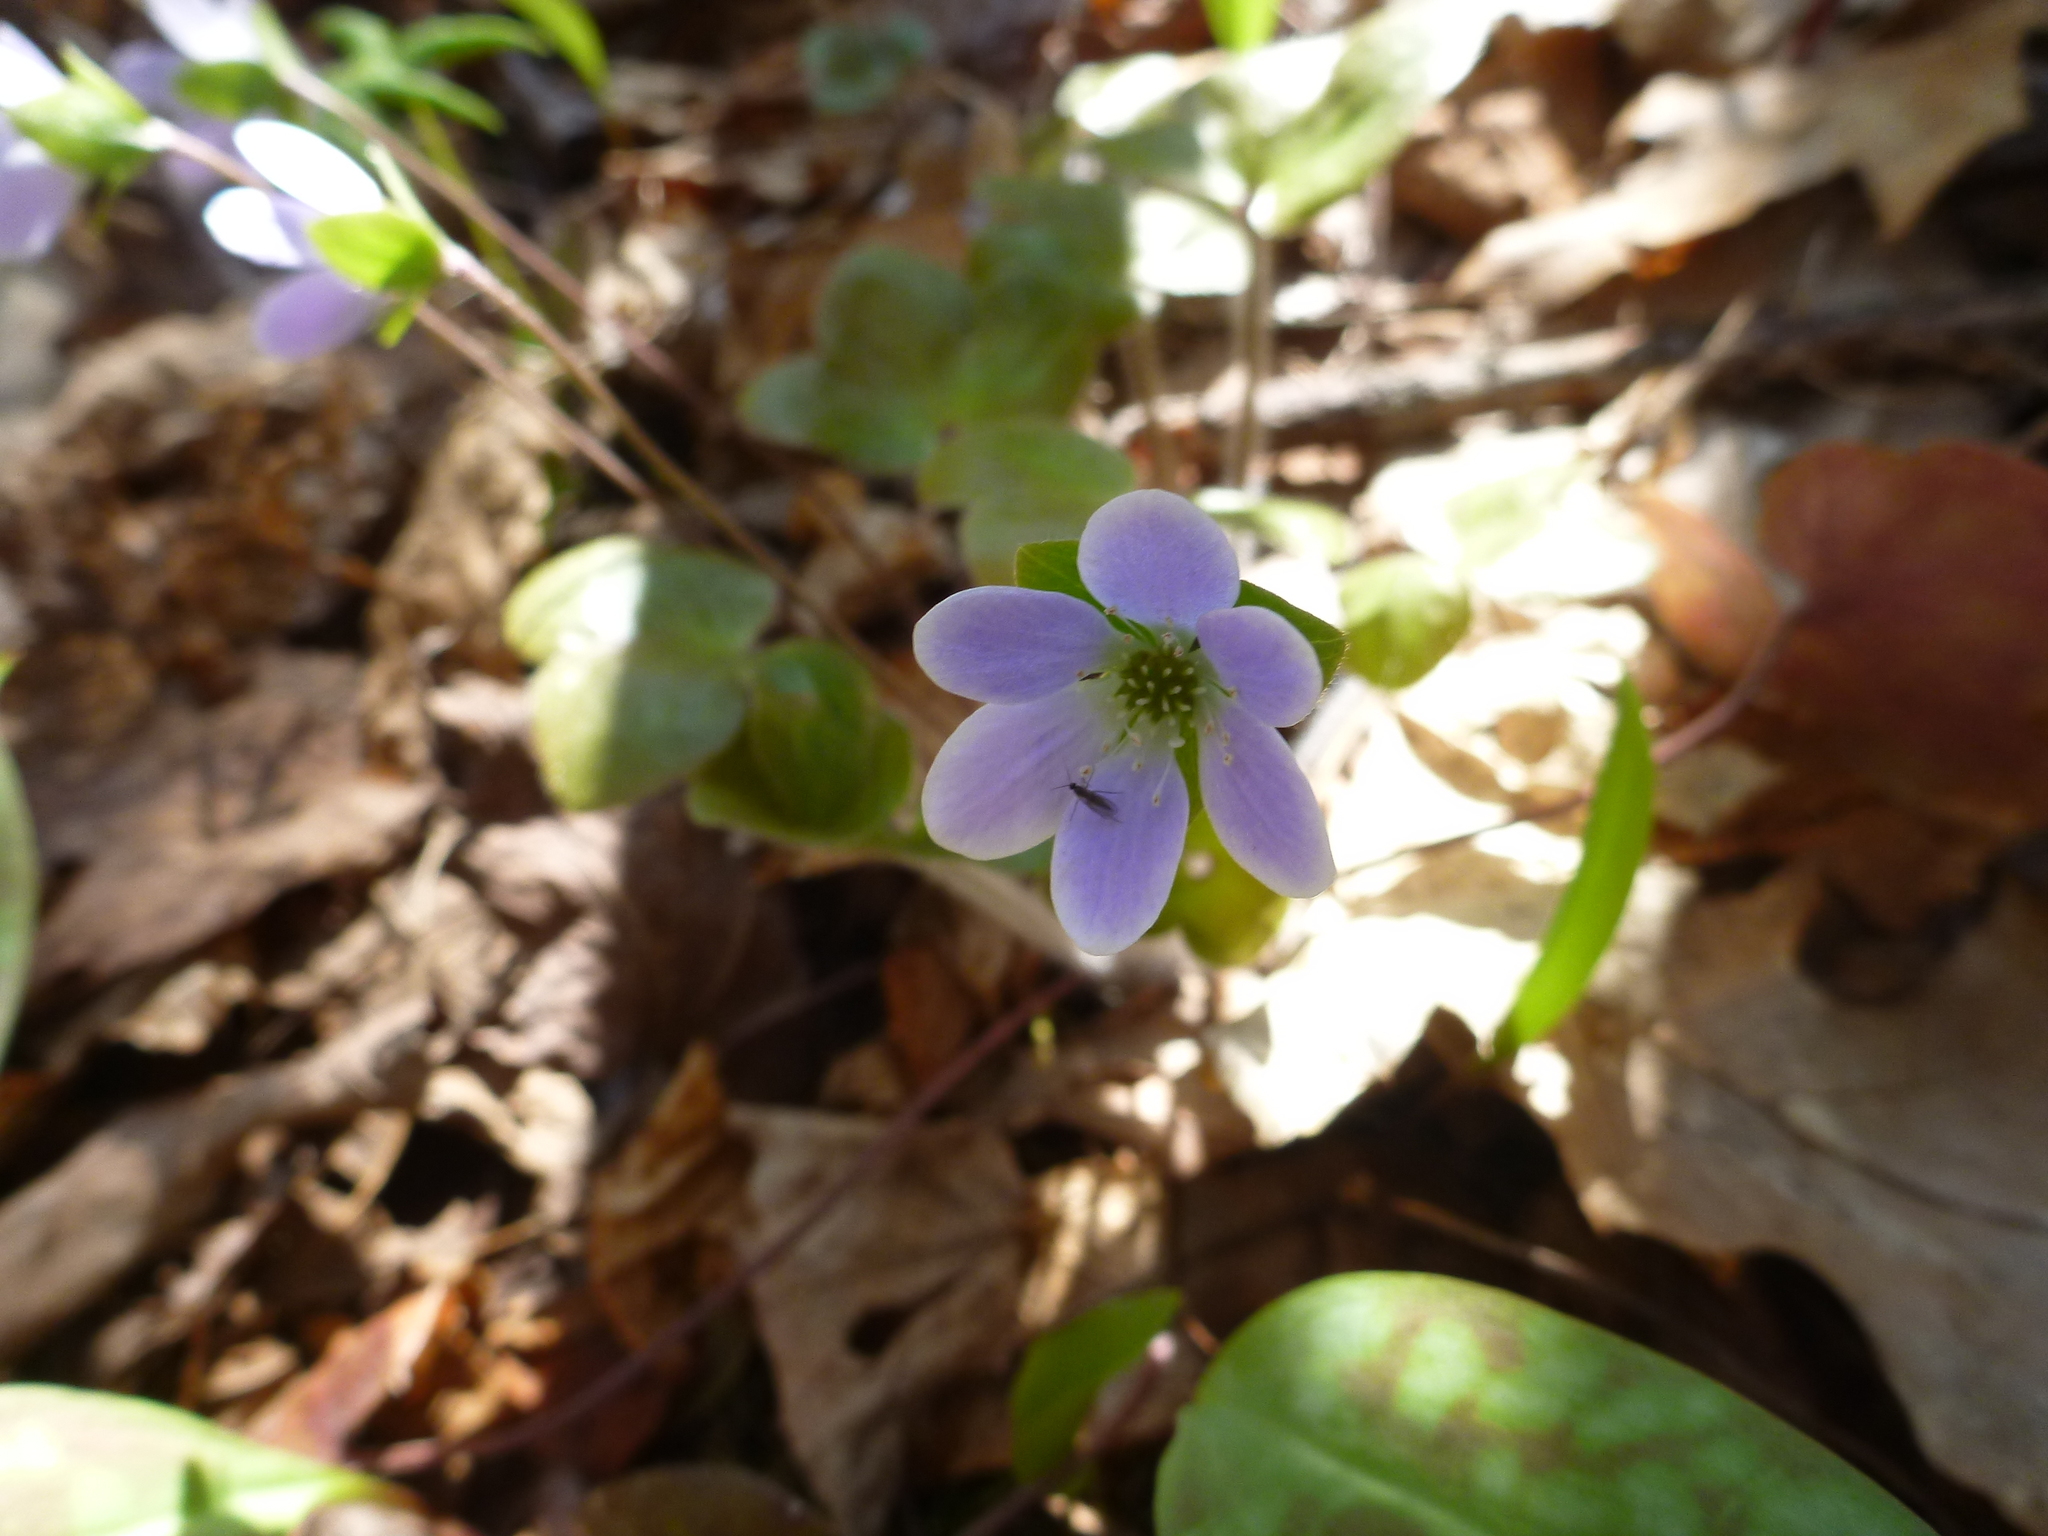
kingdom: Plantae
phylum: Tracheophyta
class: Magnoliopsida
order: Ranunculales
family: Ranunculaceae
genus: Hepatica
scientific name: Hepatica americana
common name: American hepatica
